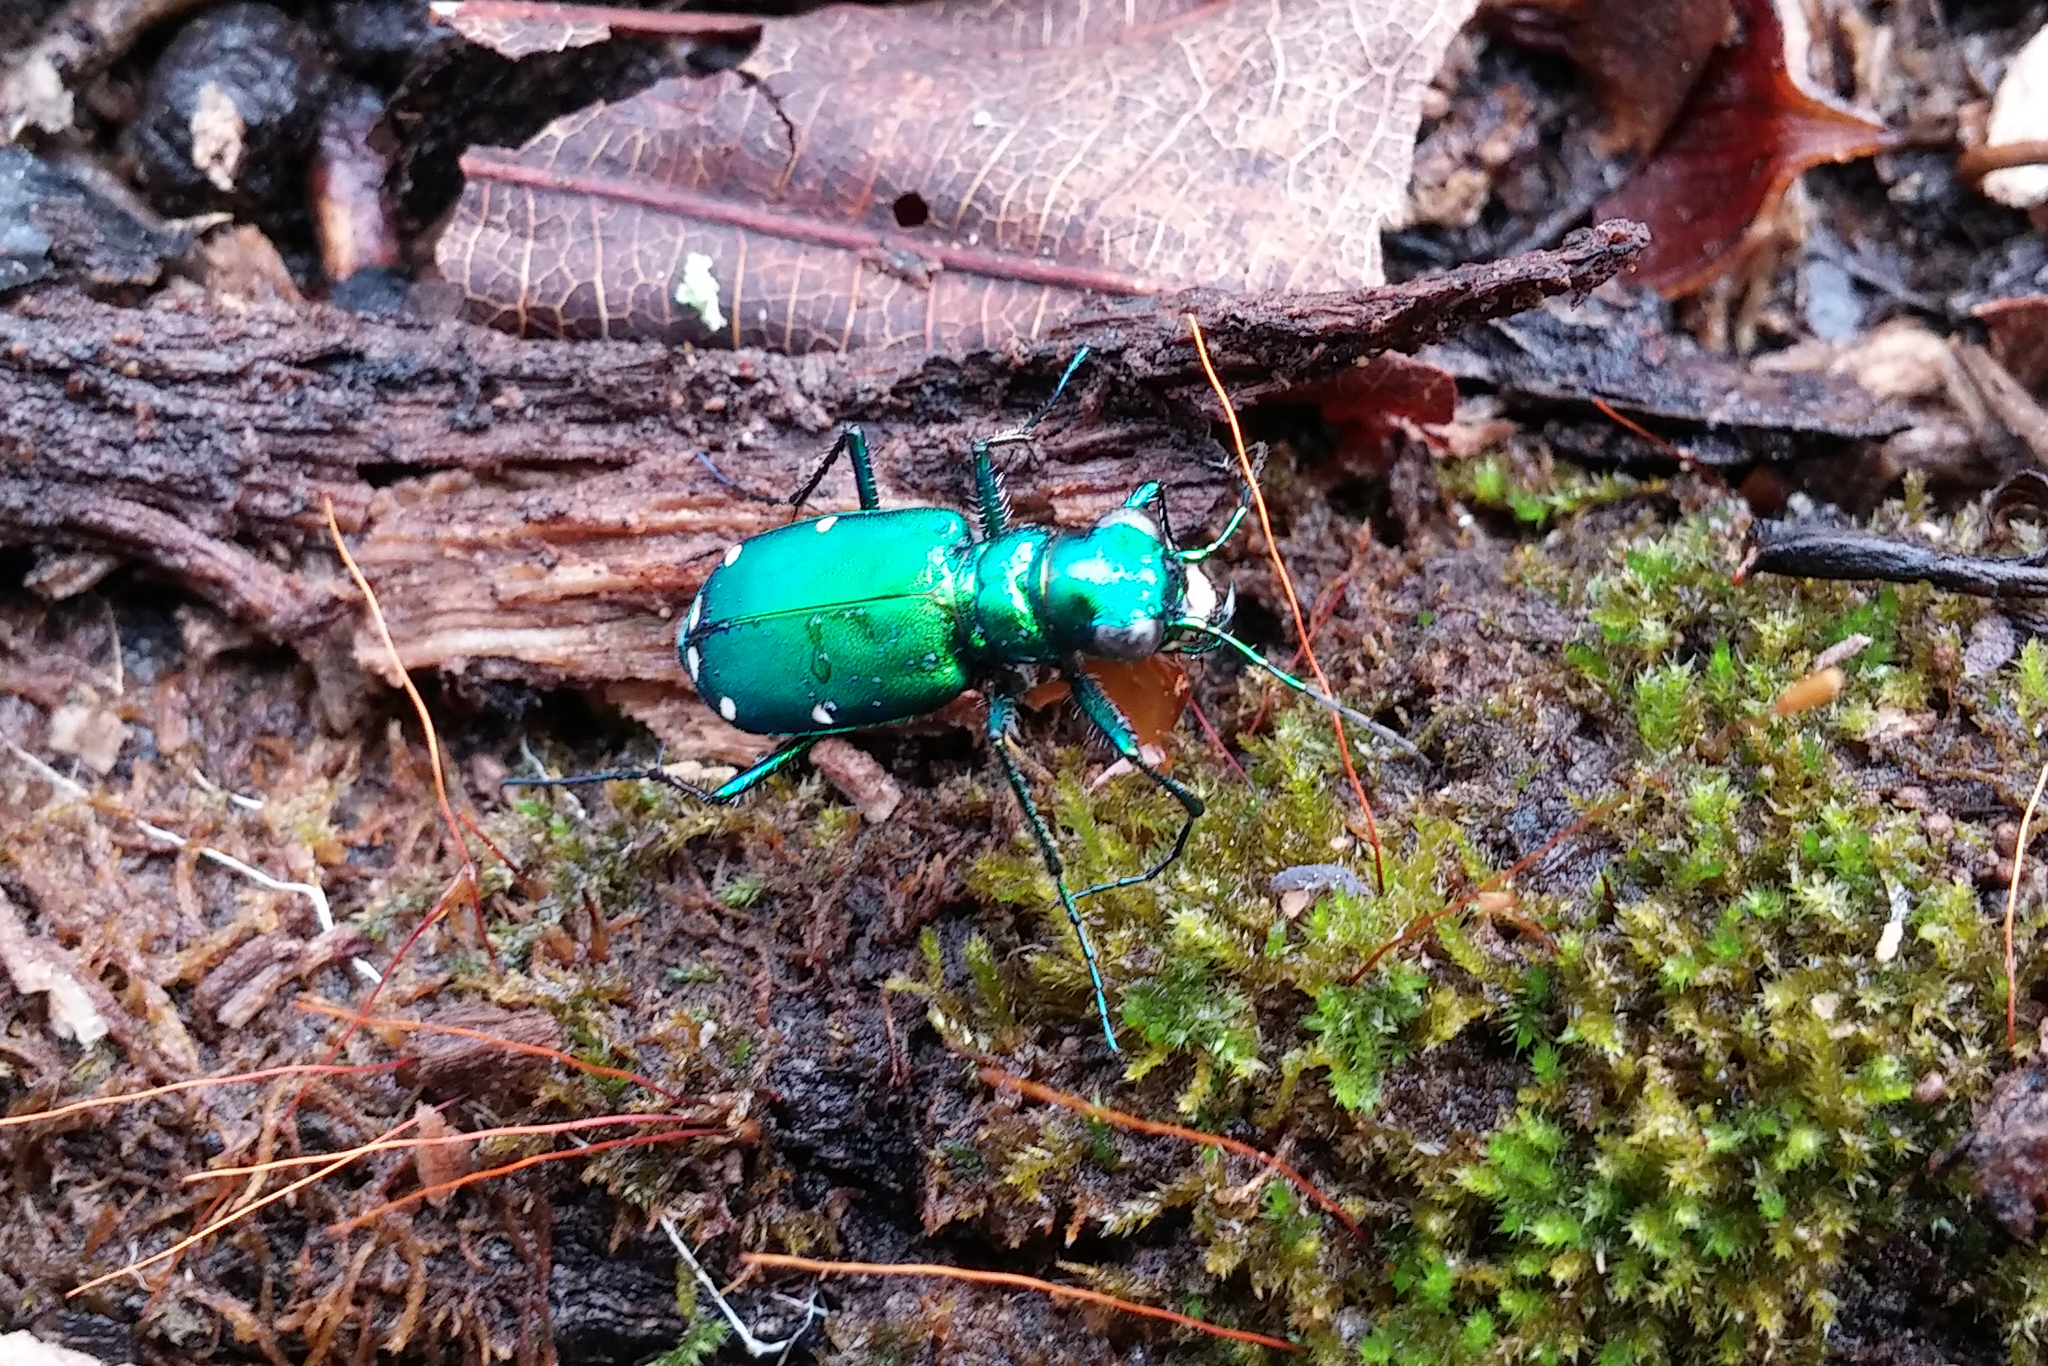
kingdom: Animalia
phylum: Arthropoda
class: Insecta
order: Coleoptera
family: Carabidae
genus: Cicindela
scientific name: Cicindela sexguttata
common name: Six-spotted tiger beetle
